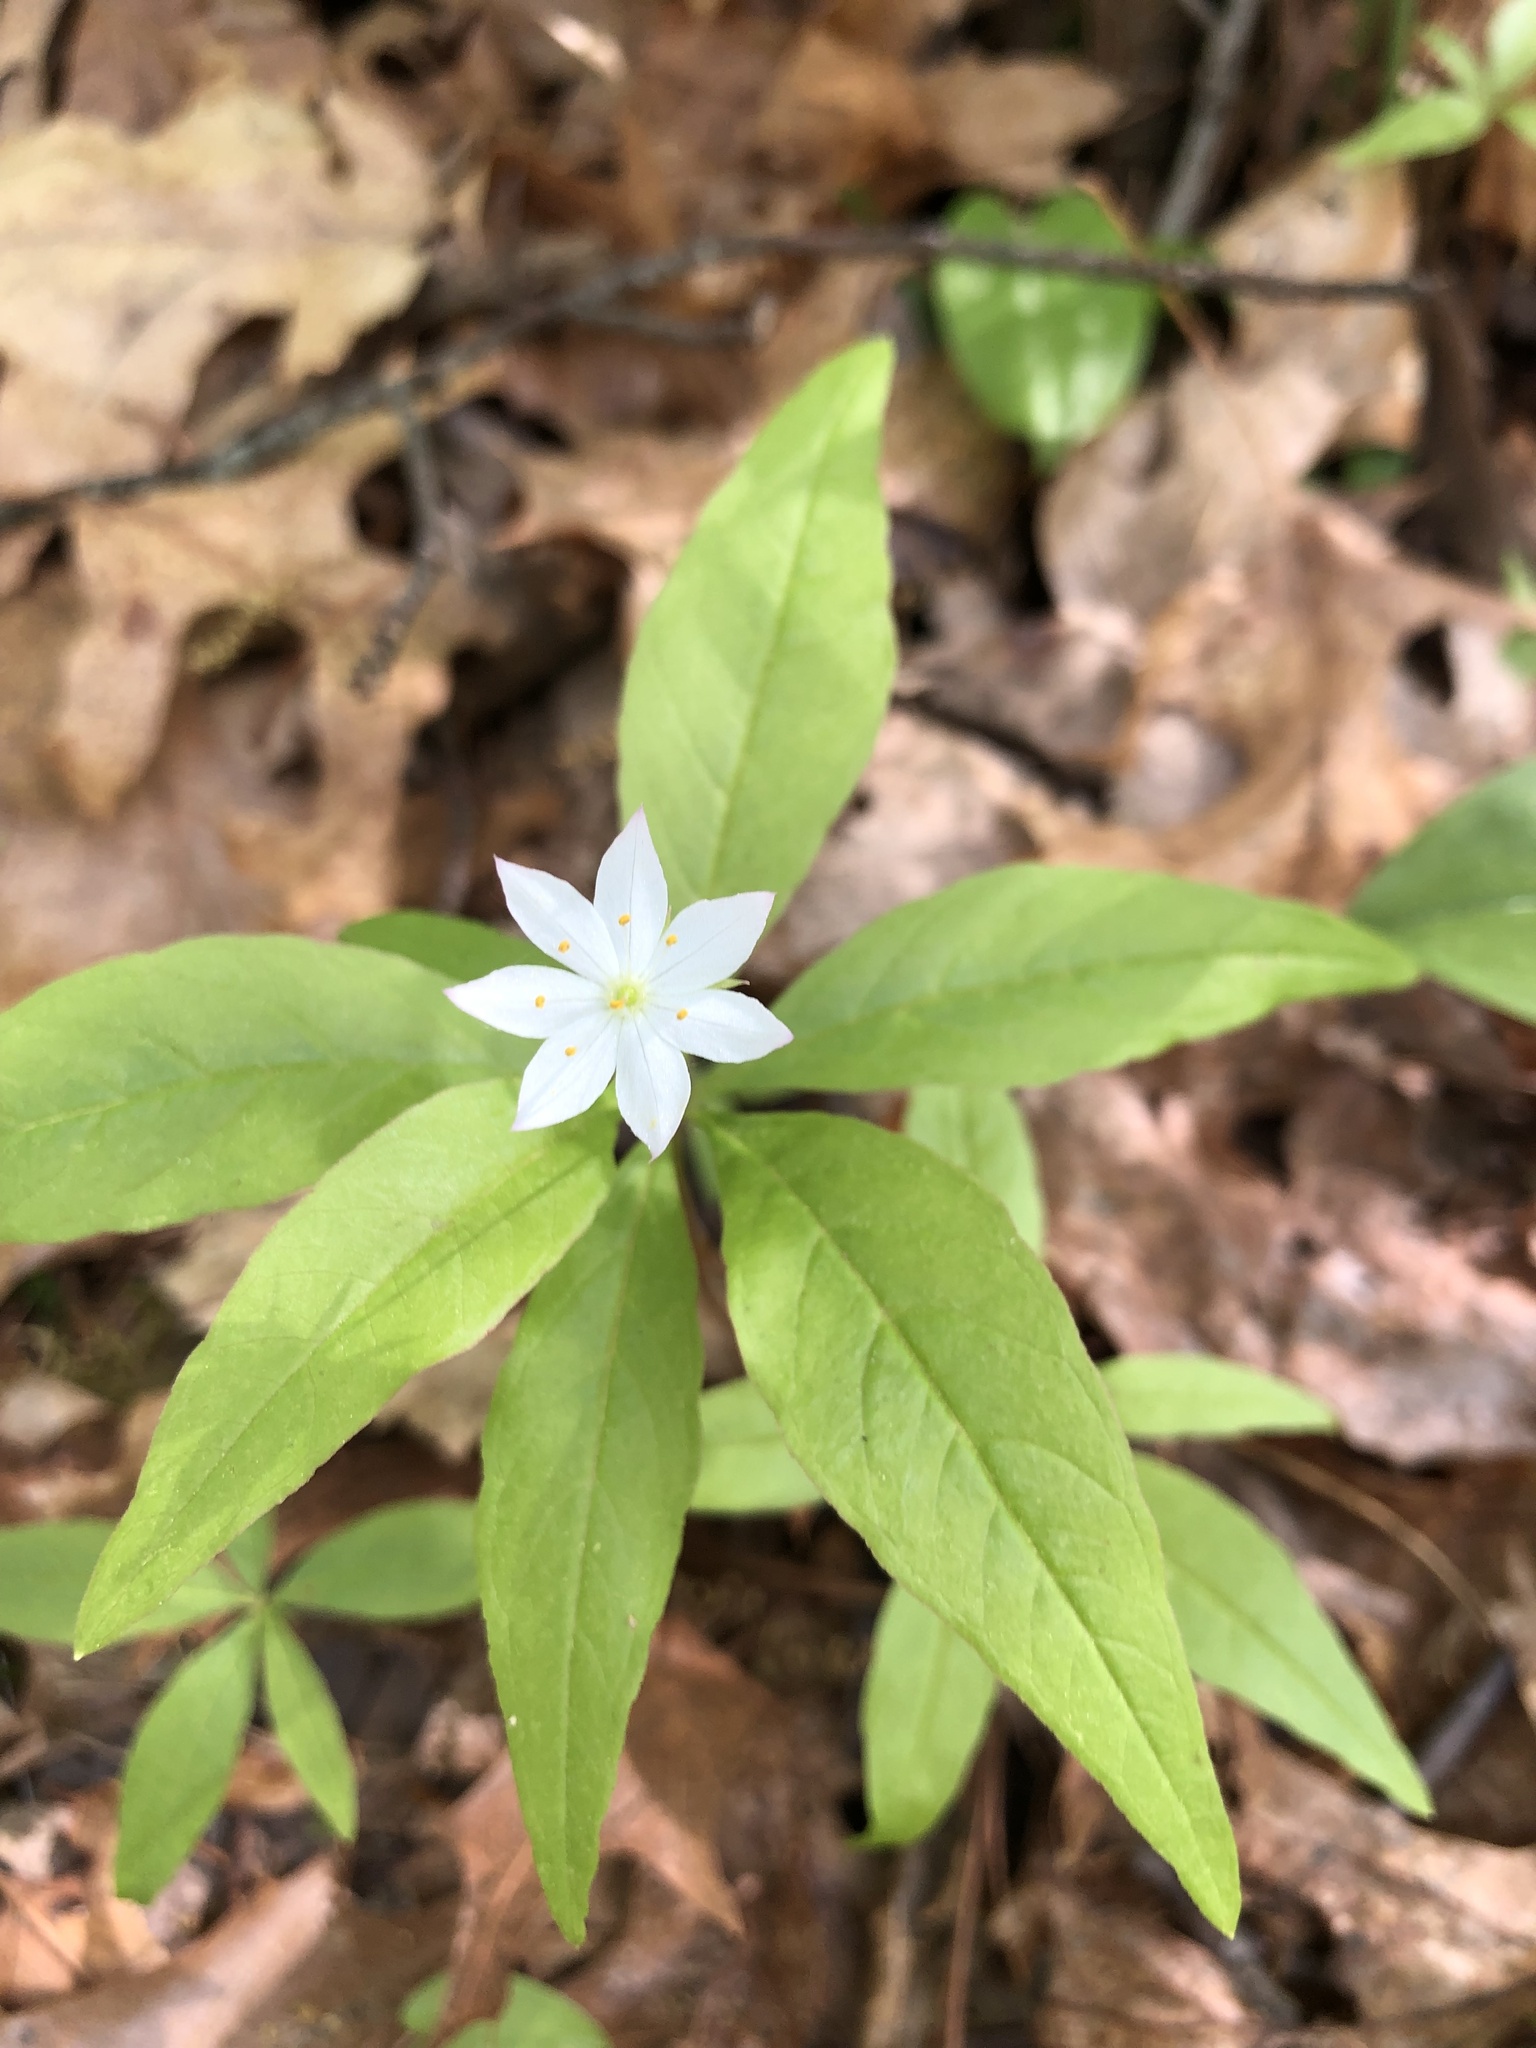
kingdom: Plantae
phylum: Tracheophyta
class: Magnoliopsida
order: Ericales
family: Primulaceae
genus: Lysimachia
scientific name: Lysimachia borealis
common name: American starflower
